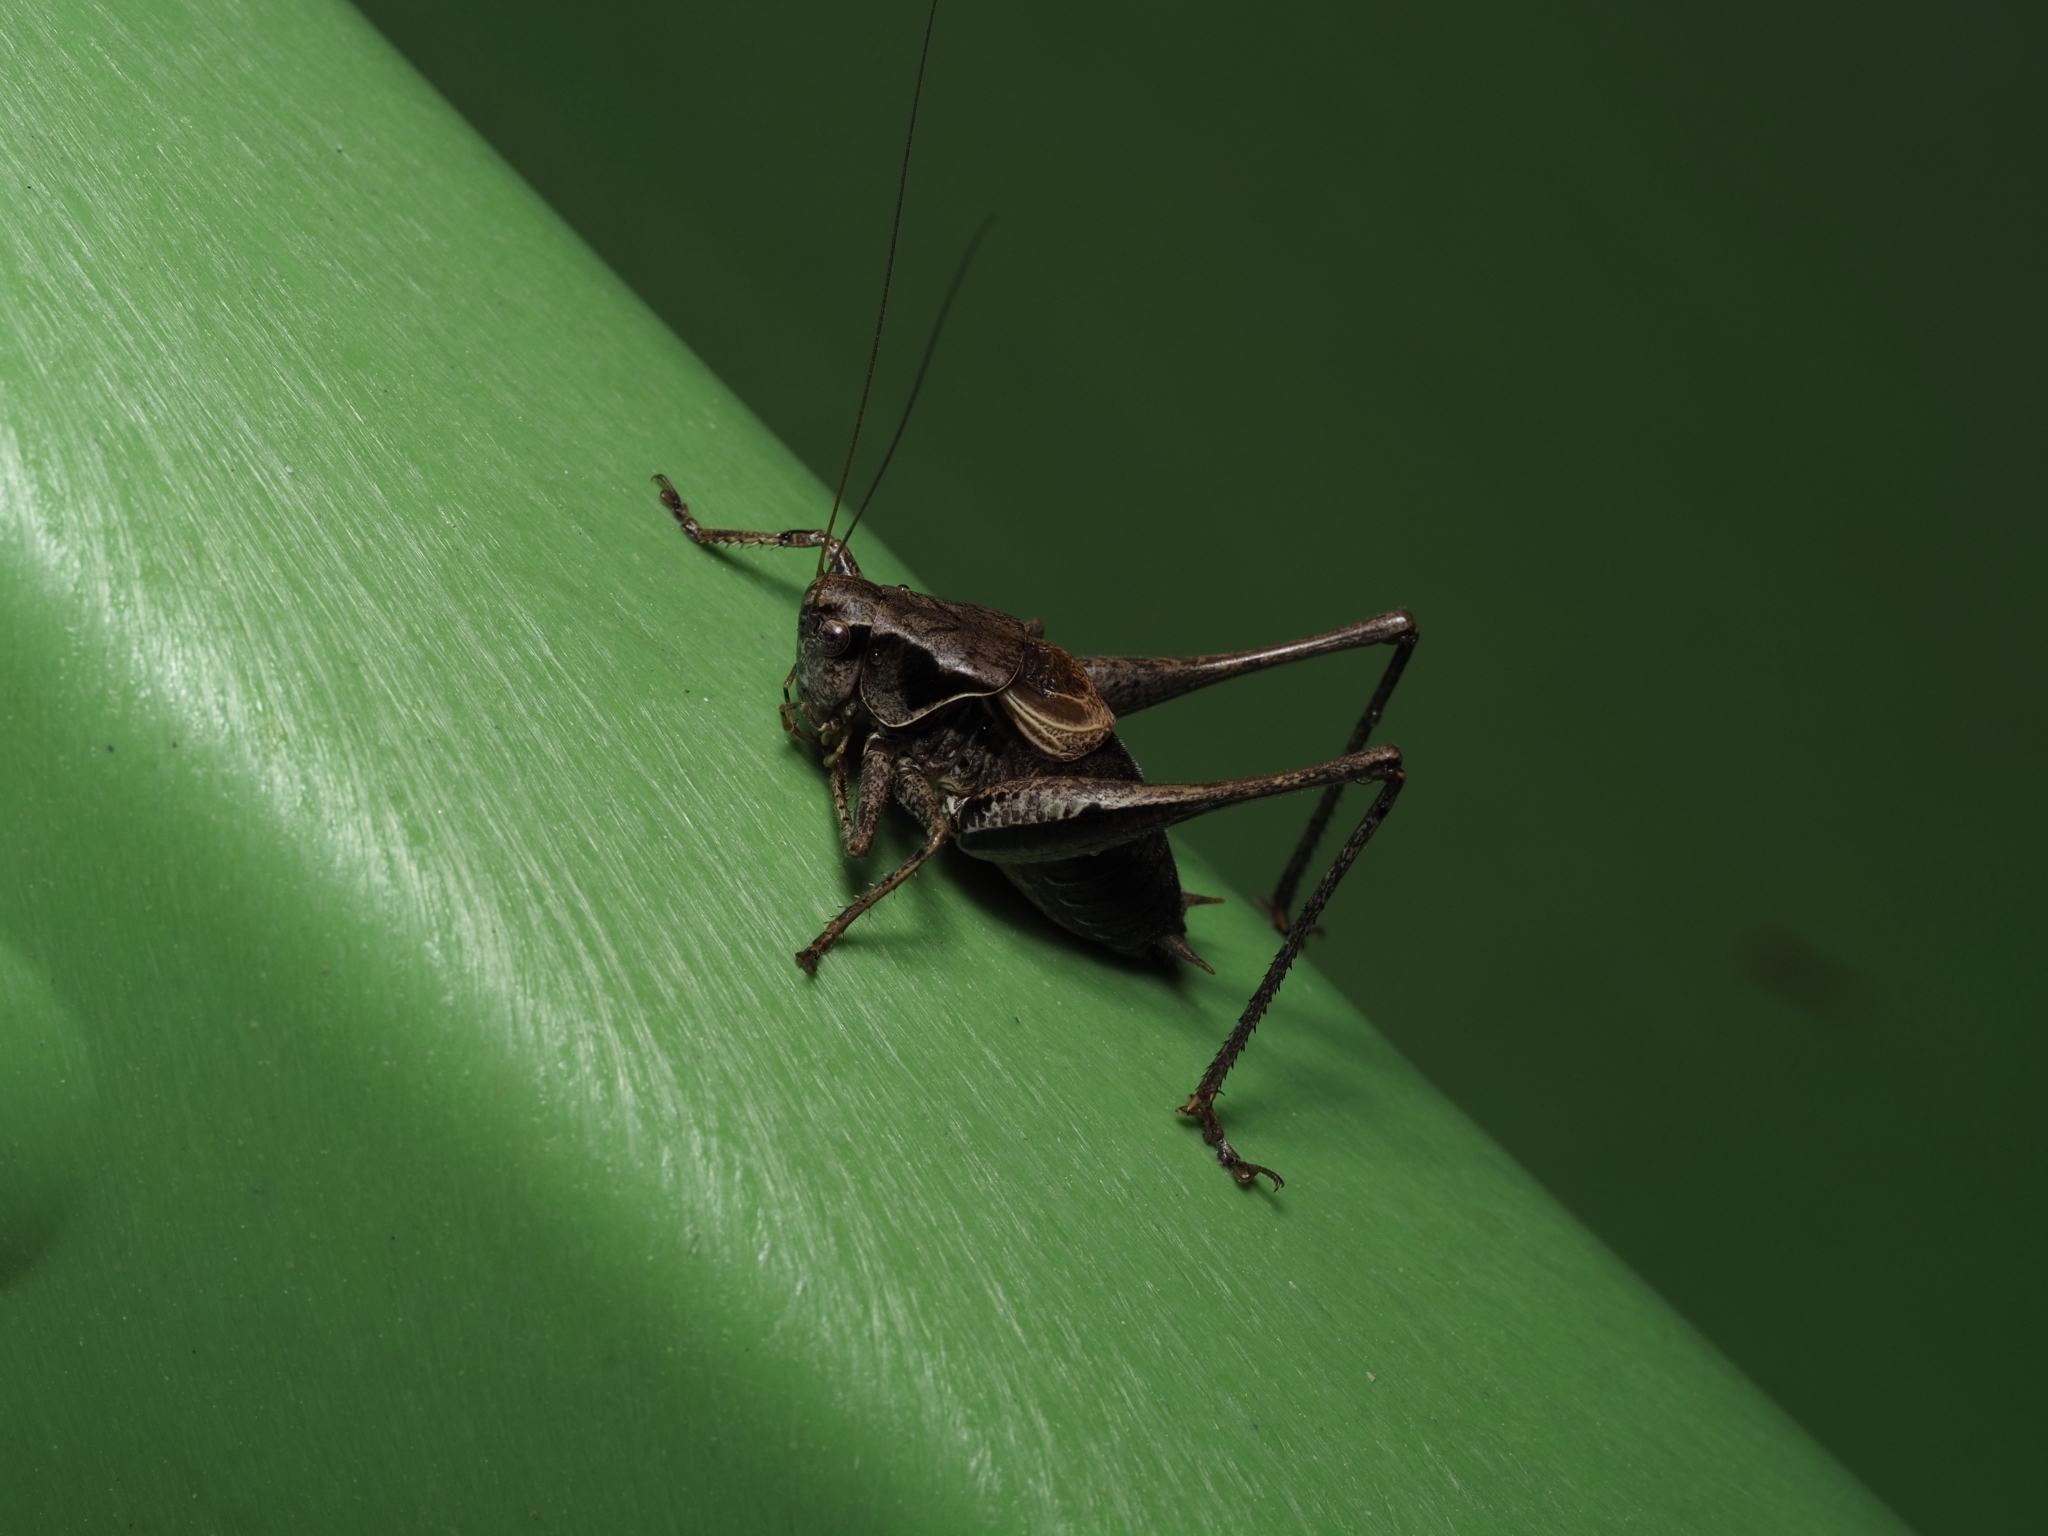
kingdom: Animalia
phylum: Arthropoda
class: Insecta
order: Orthoptera
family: Tettigoniidae
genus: Pholidoptera
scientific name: Pholidoptera griseoaptera
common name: Dark bush-cricket
